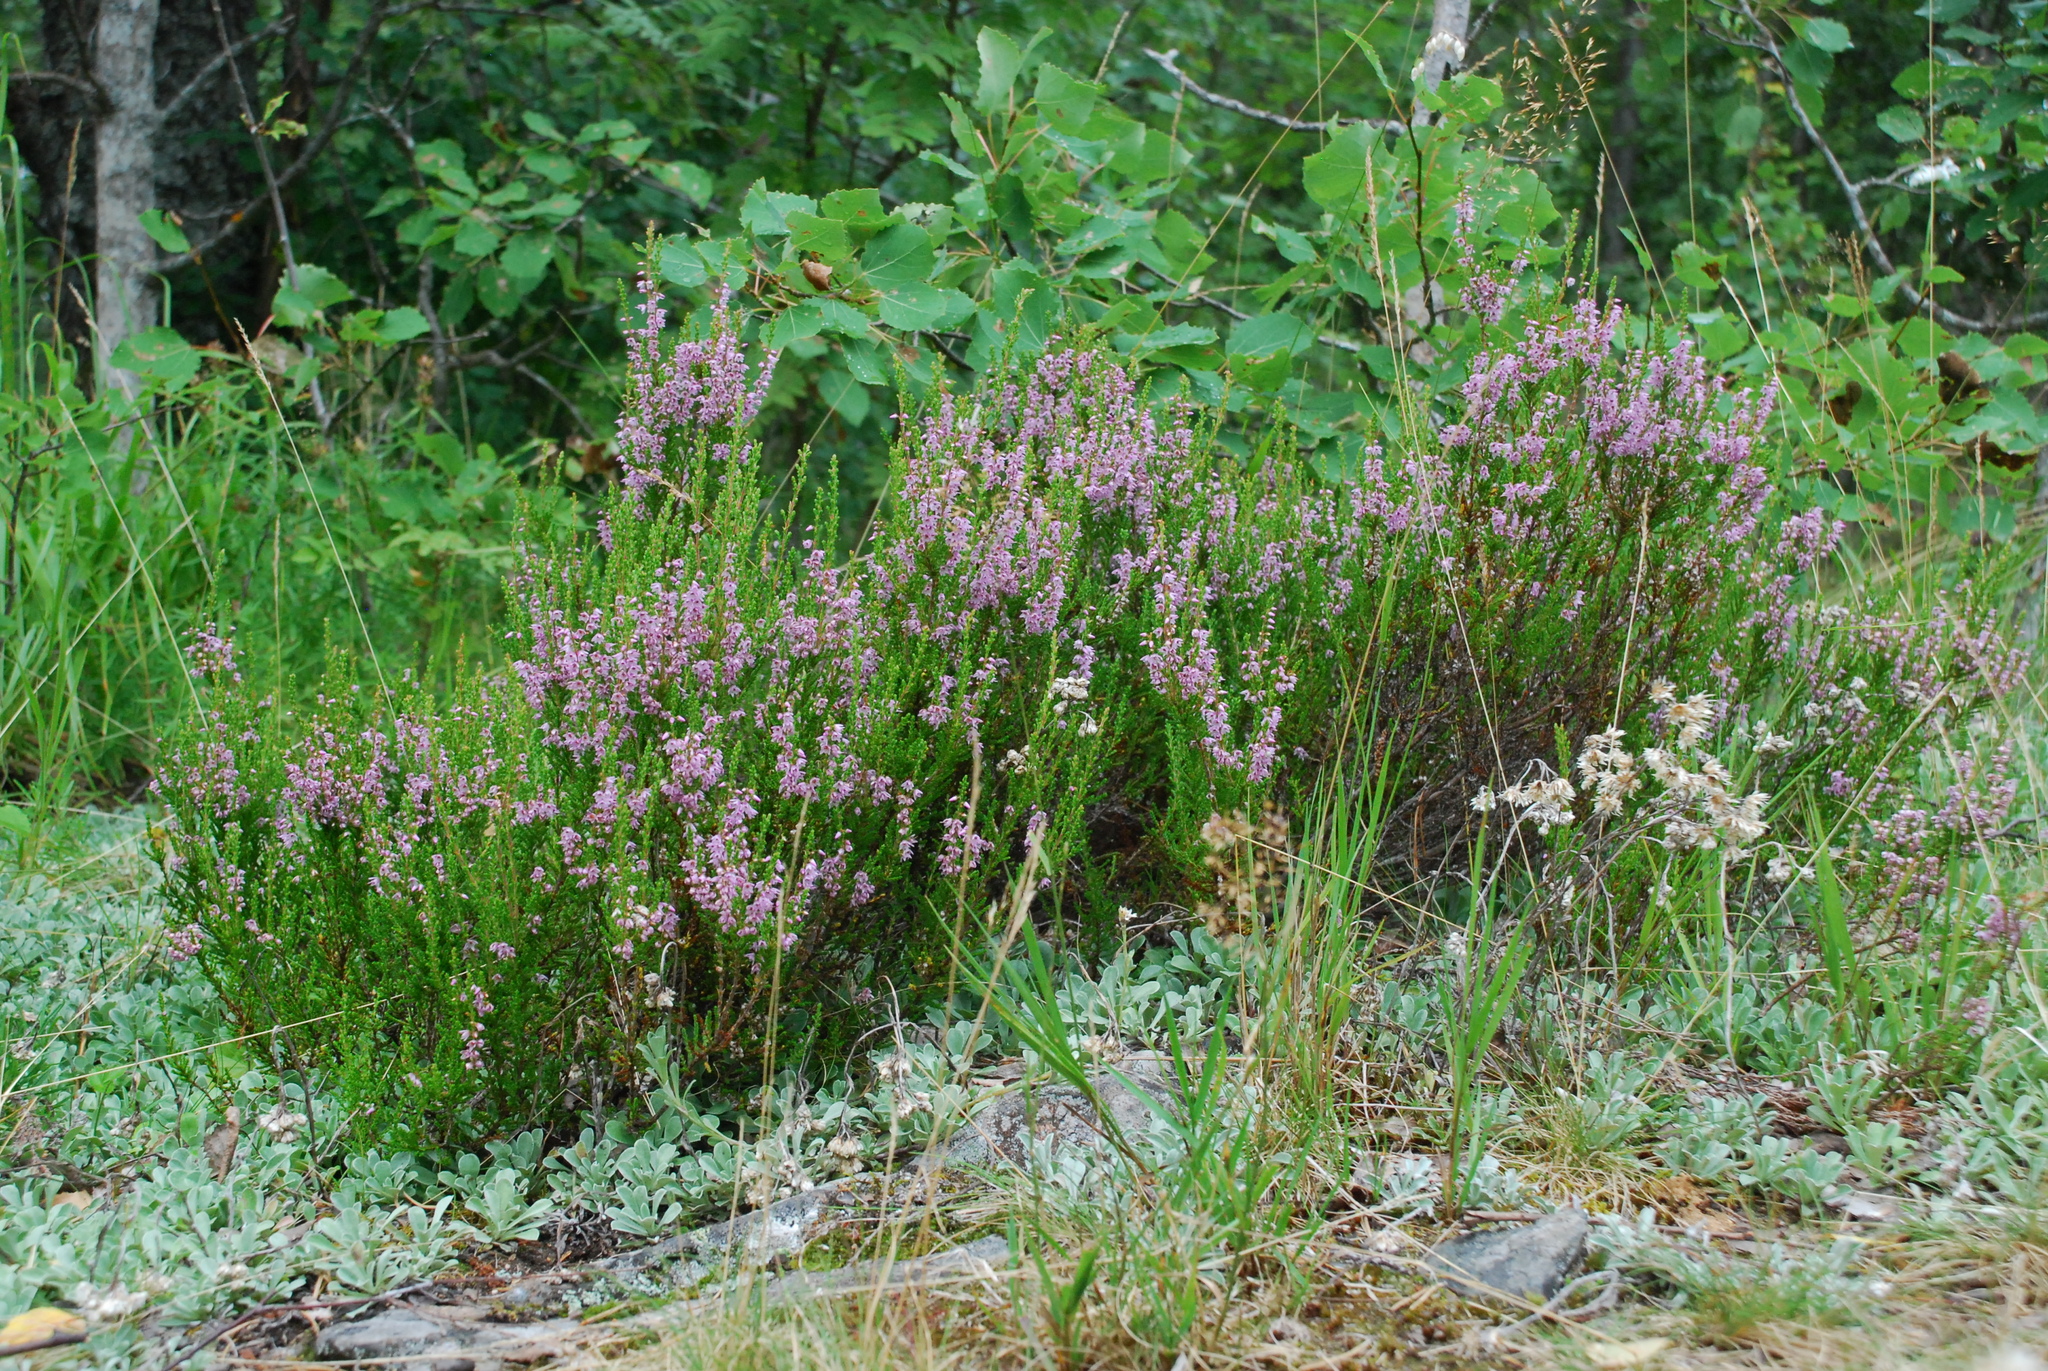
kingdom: Plantae
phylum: Tracheophyta
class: Magnoliopsida
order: Ericales
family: Ericaceae
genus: Calluna
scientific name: Calluna vulgaris
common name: Heather
